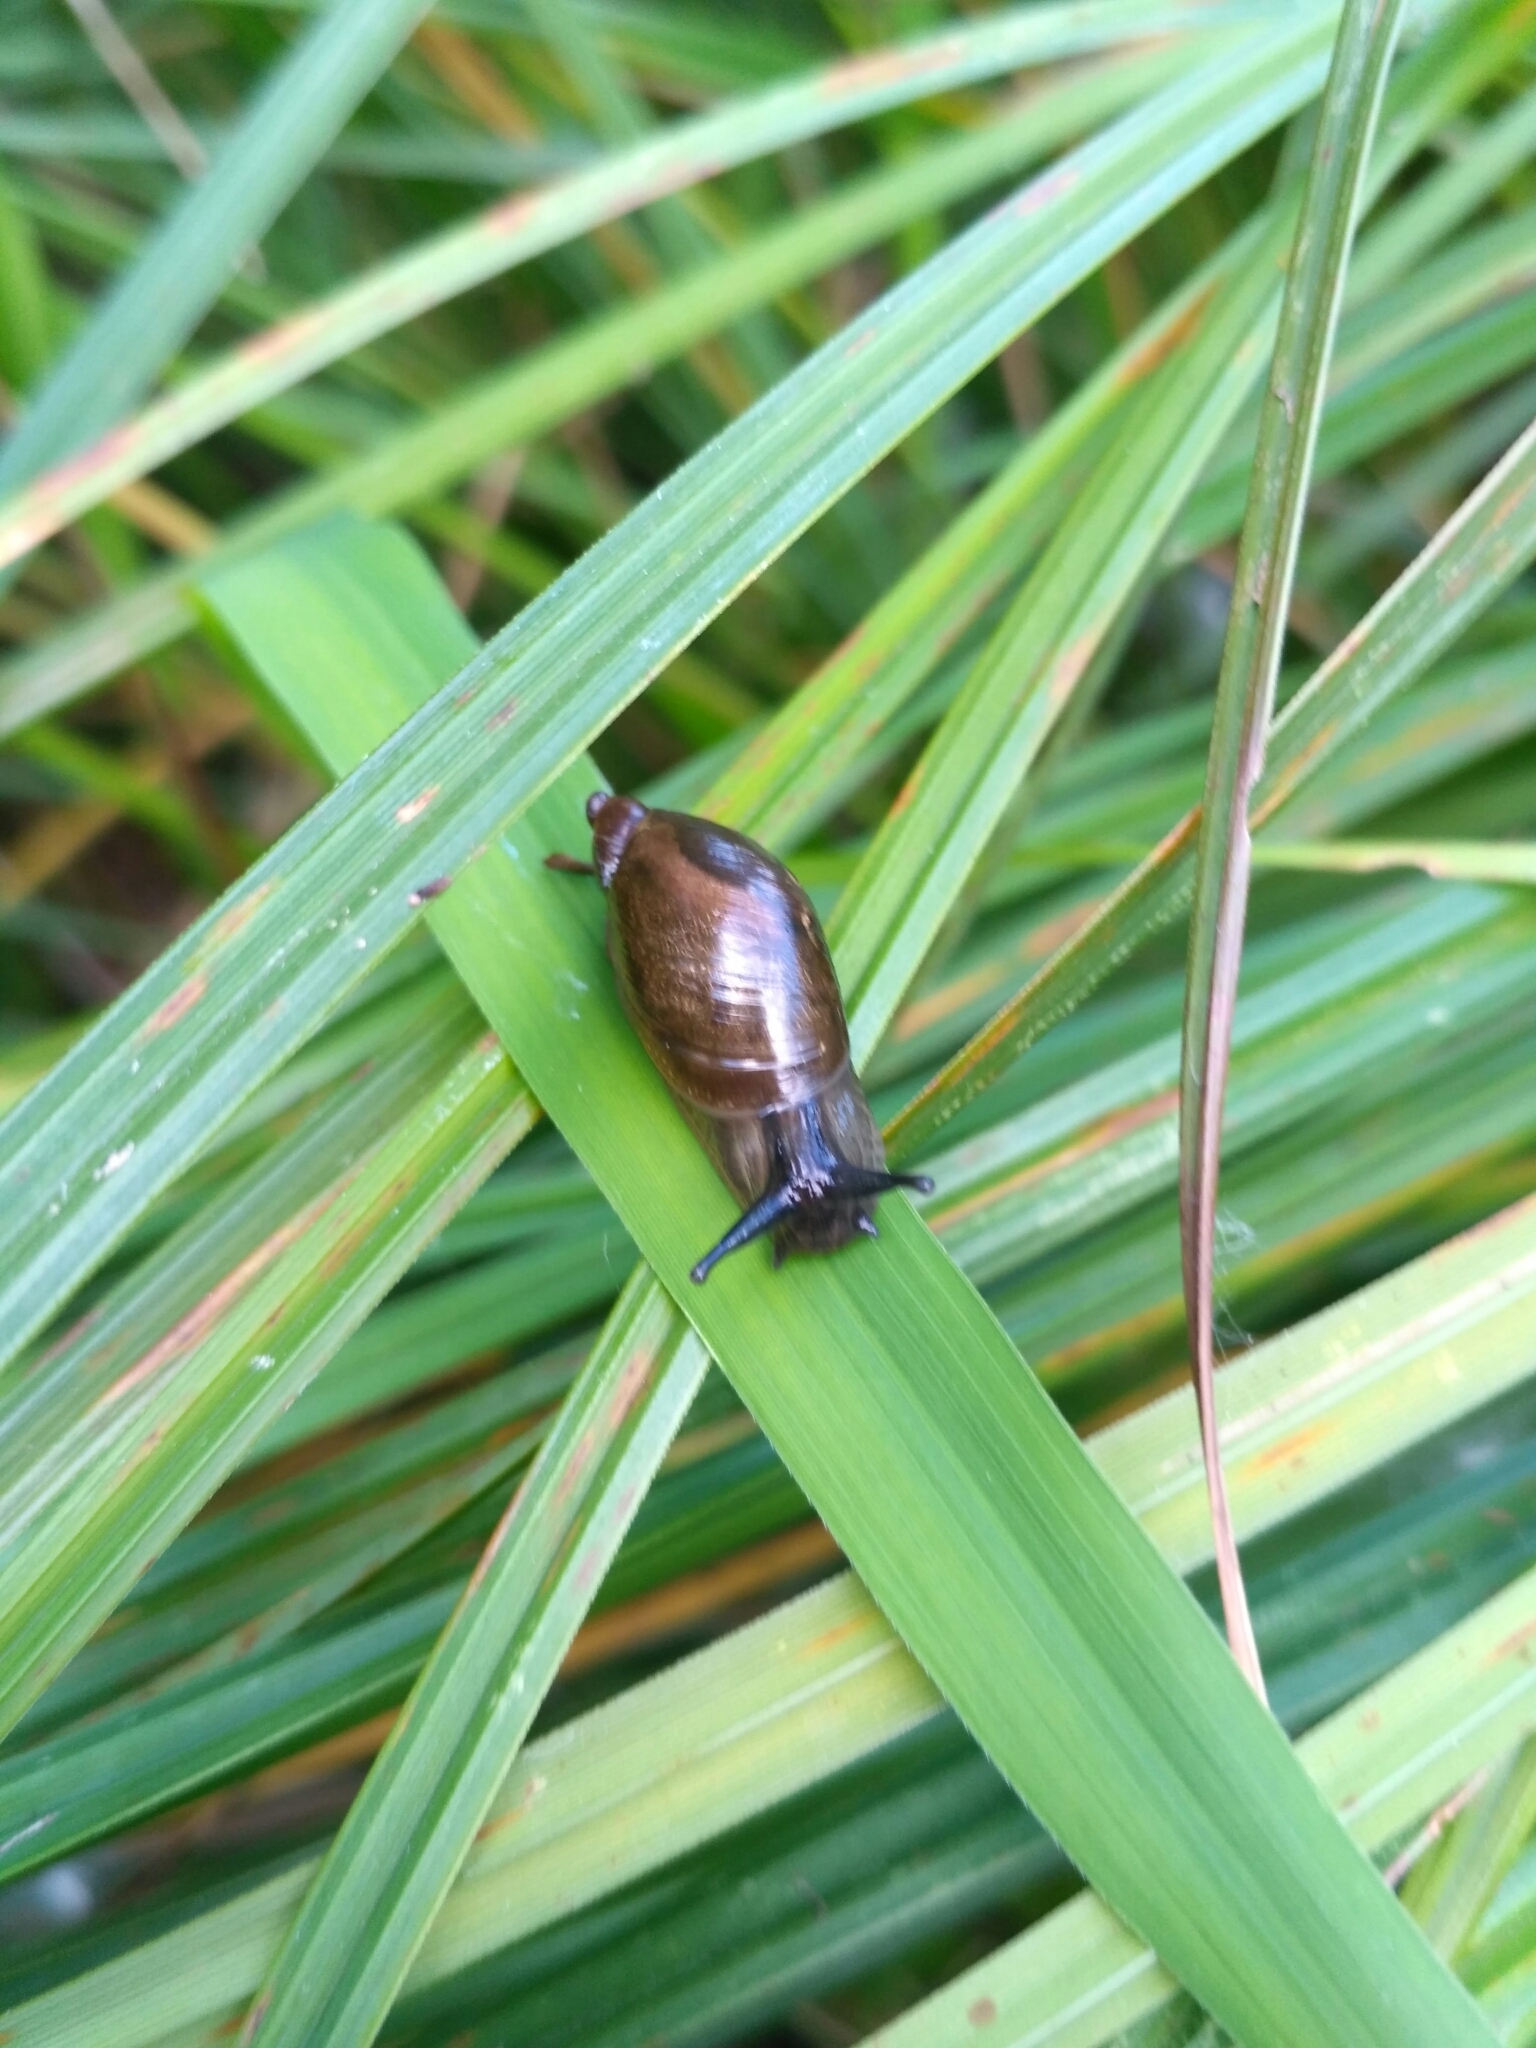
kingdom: Animalia
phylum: Mollusca
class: Gastropoda
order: Stylommatophora
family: Succineidae
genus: Succinea
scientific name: Succinea putris
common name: European ambersnail
